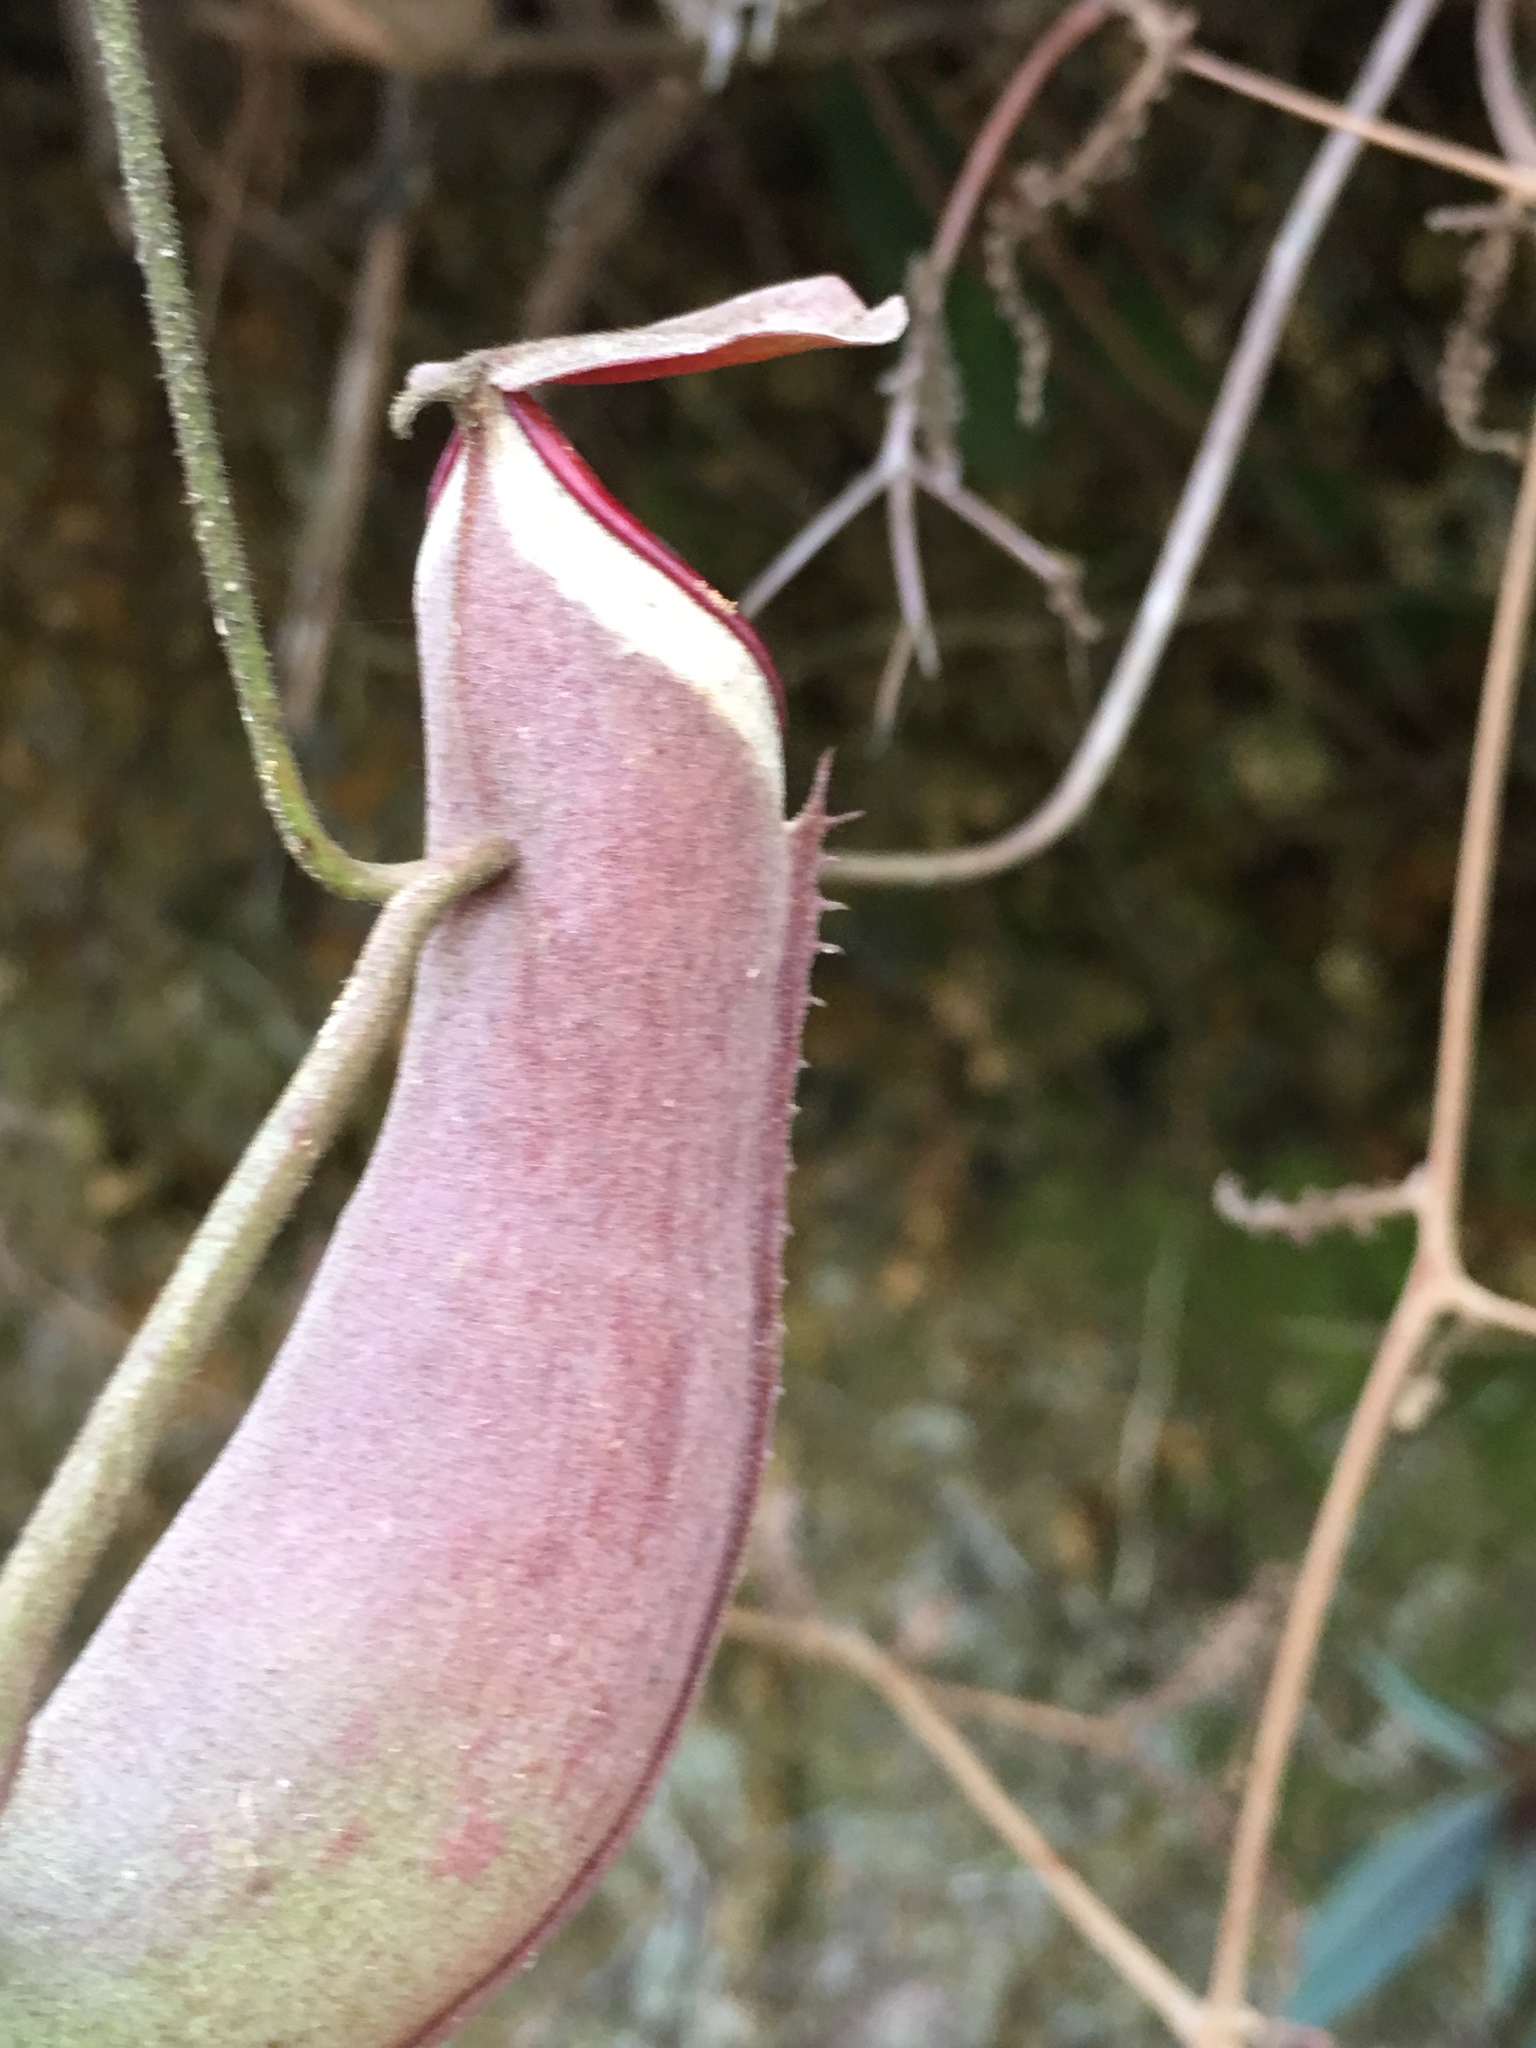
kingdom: Plantae
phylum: Tracheophyta
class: Magnoliopsida
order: Caryophyllales
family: Nepenthaceae
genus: Nepenthes
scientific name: Nepenthes albomarginata
